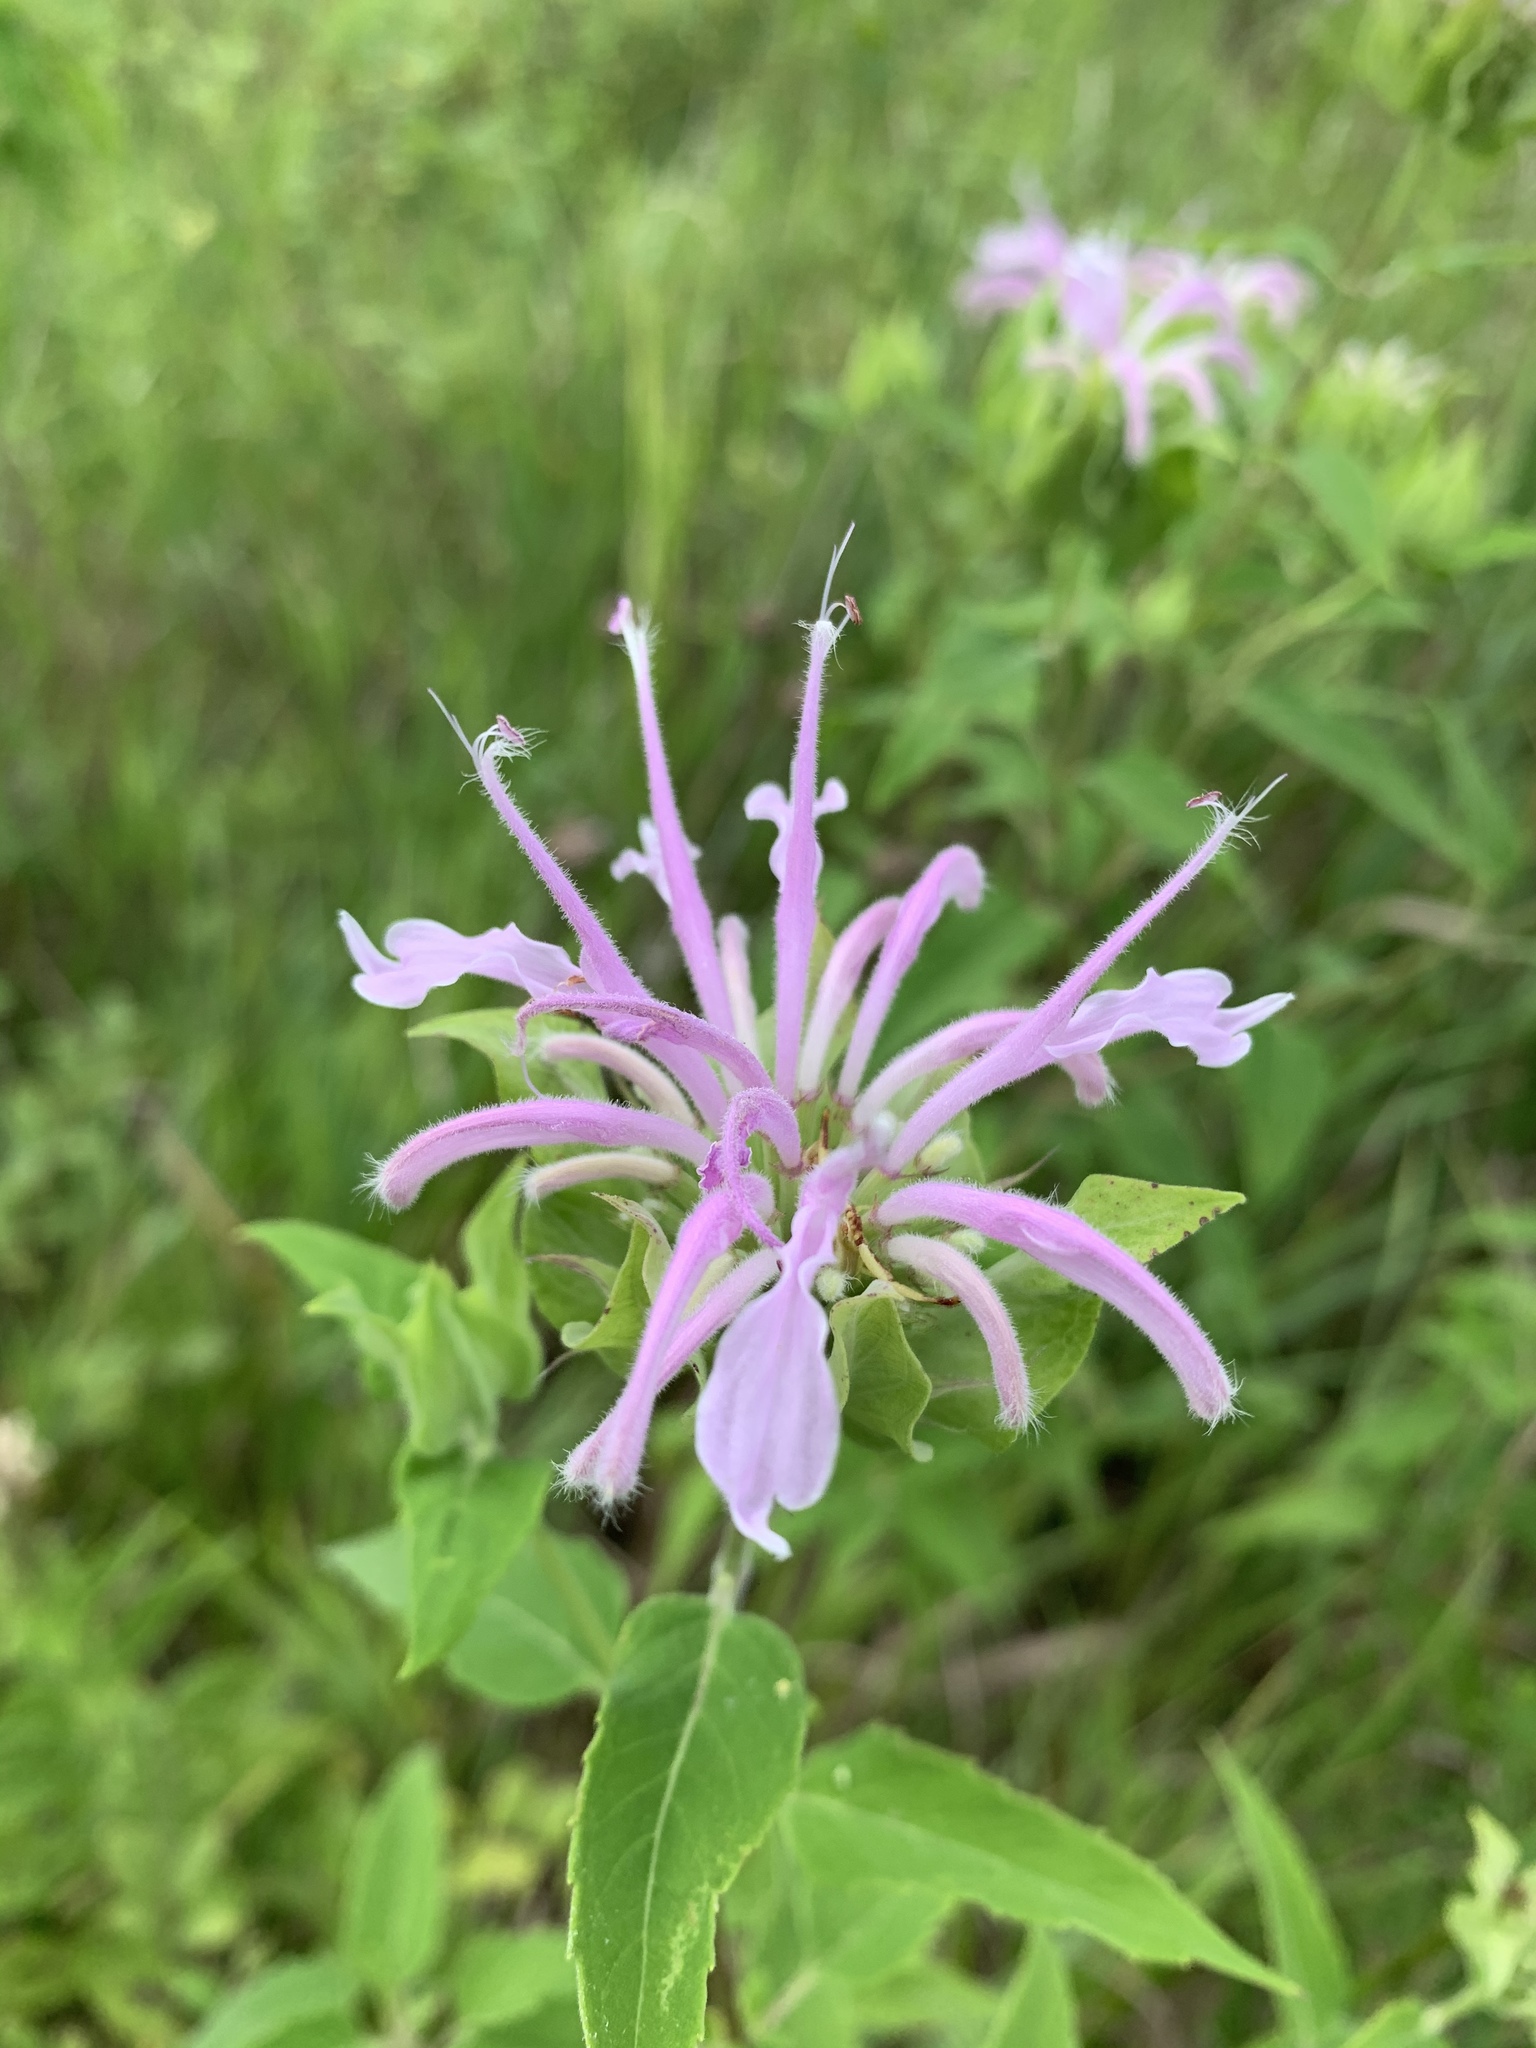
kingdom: Plantae
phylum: Tracheophyta
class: Magnoliopsida
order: Lamiales
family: Lamiaceae
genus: Monarda
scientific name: Monarda fistulosa
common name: Purple beebalm
